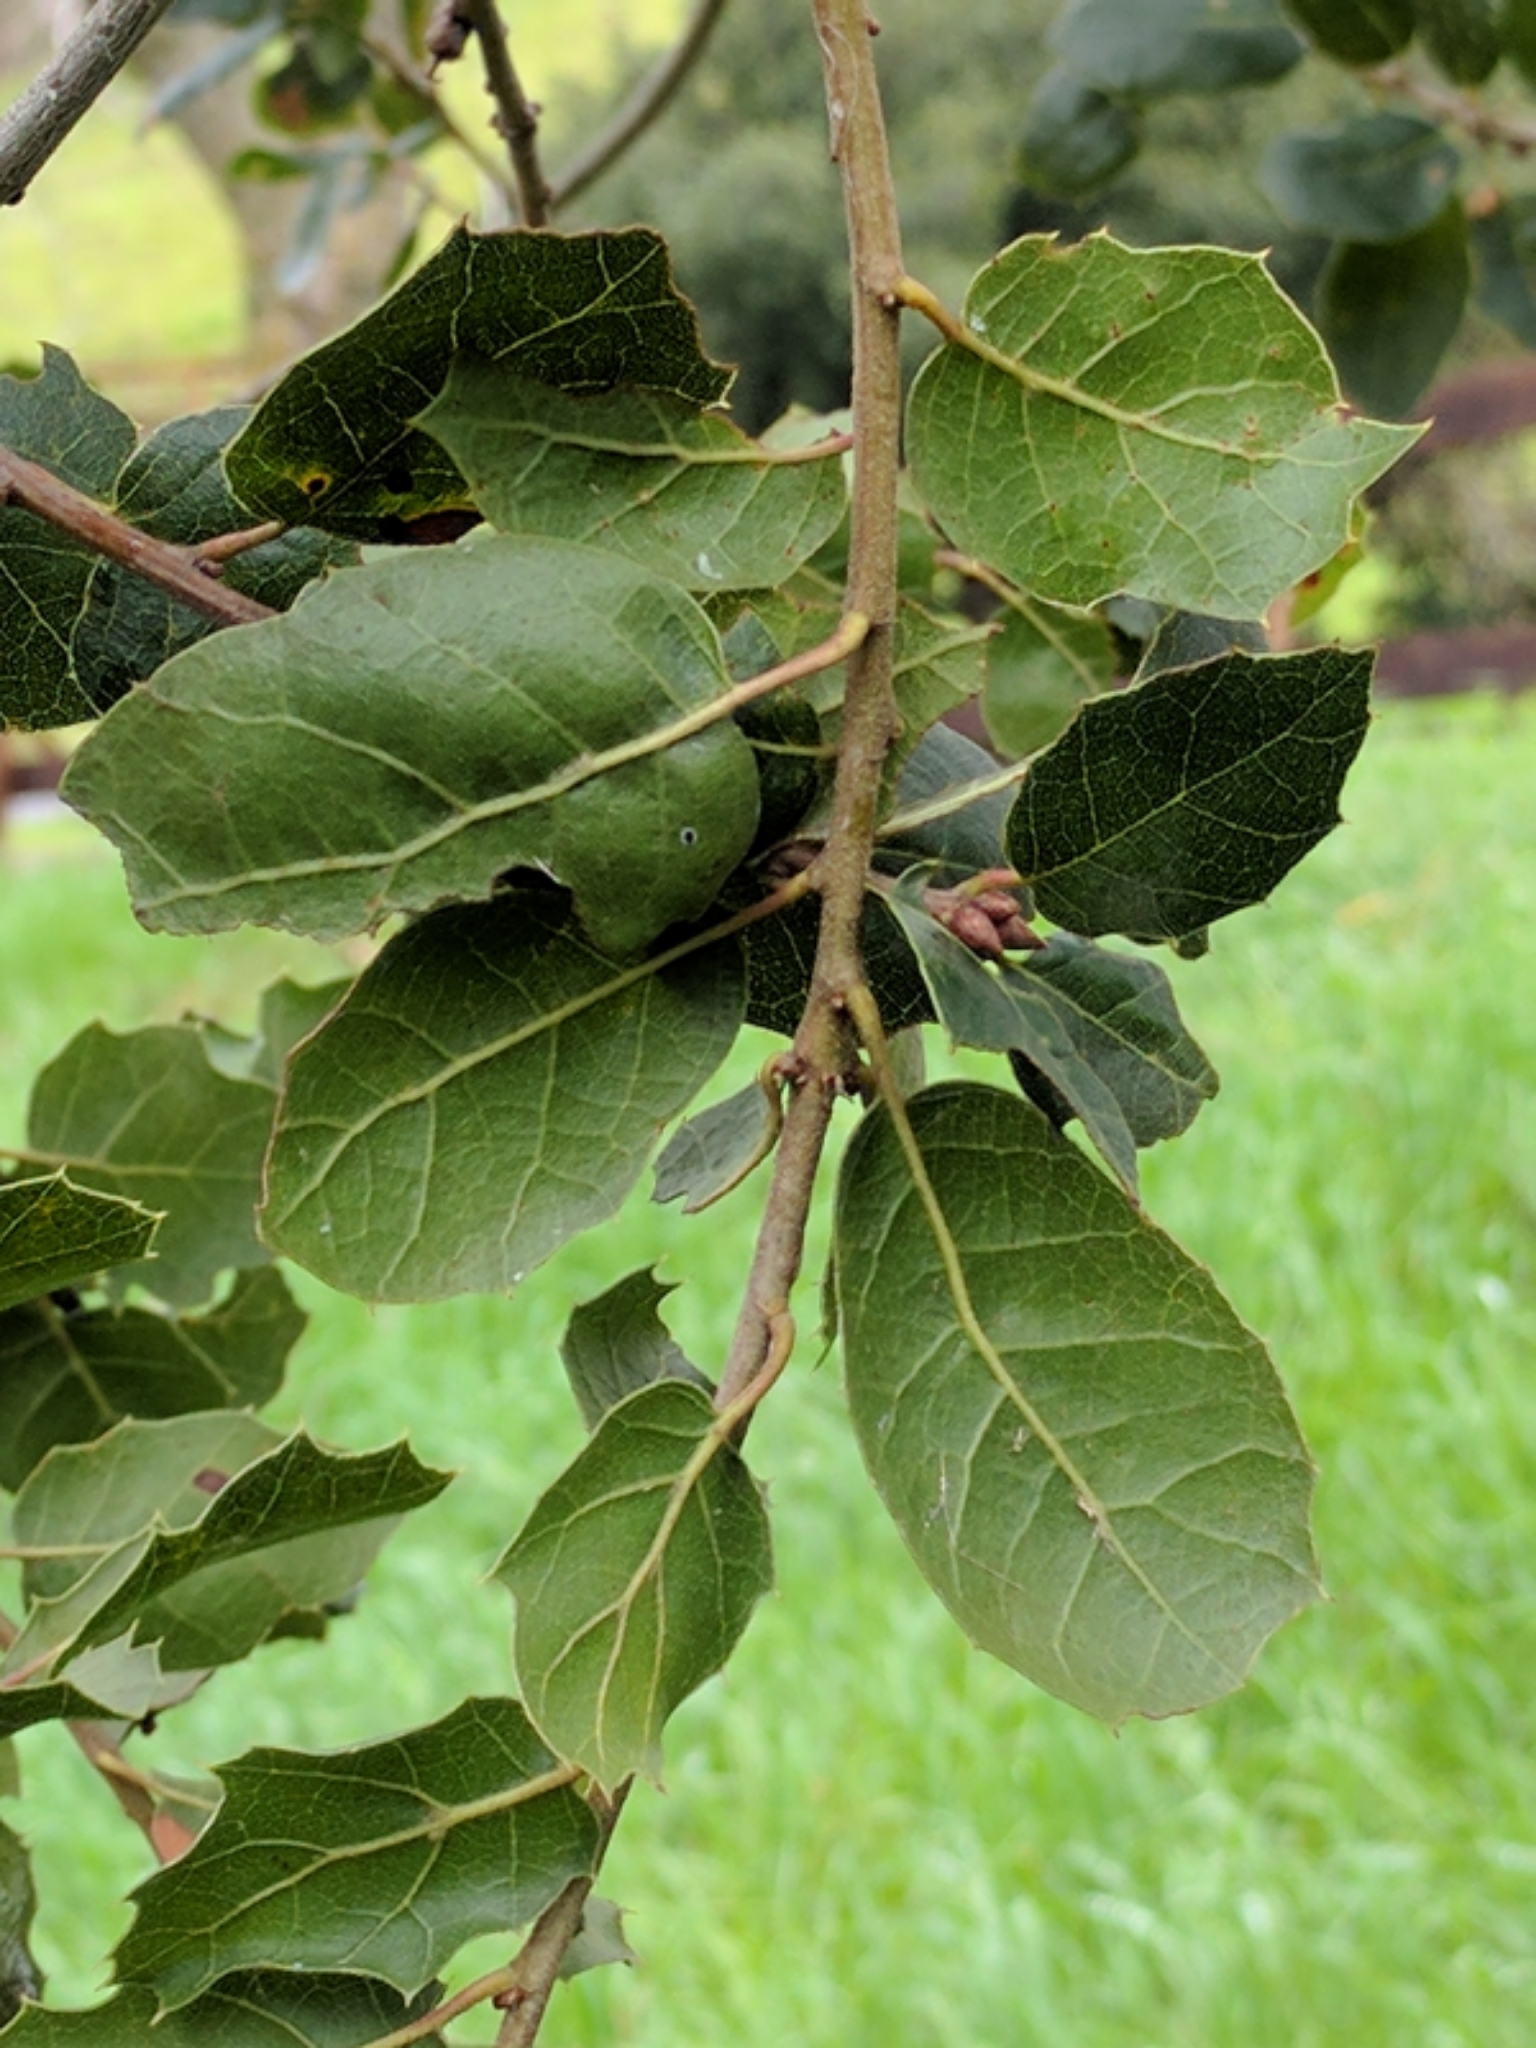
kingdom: Plantae
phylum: Tracheophyta
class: Magnoliopsida
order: Fagales
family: Fagaceae
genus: Quercus
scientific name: Quercus agrifolia
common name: California live oak
